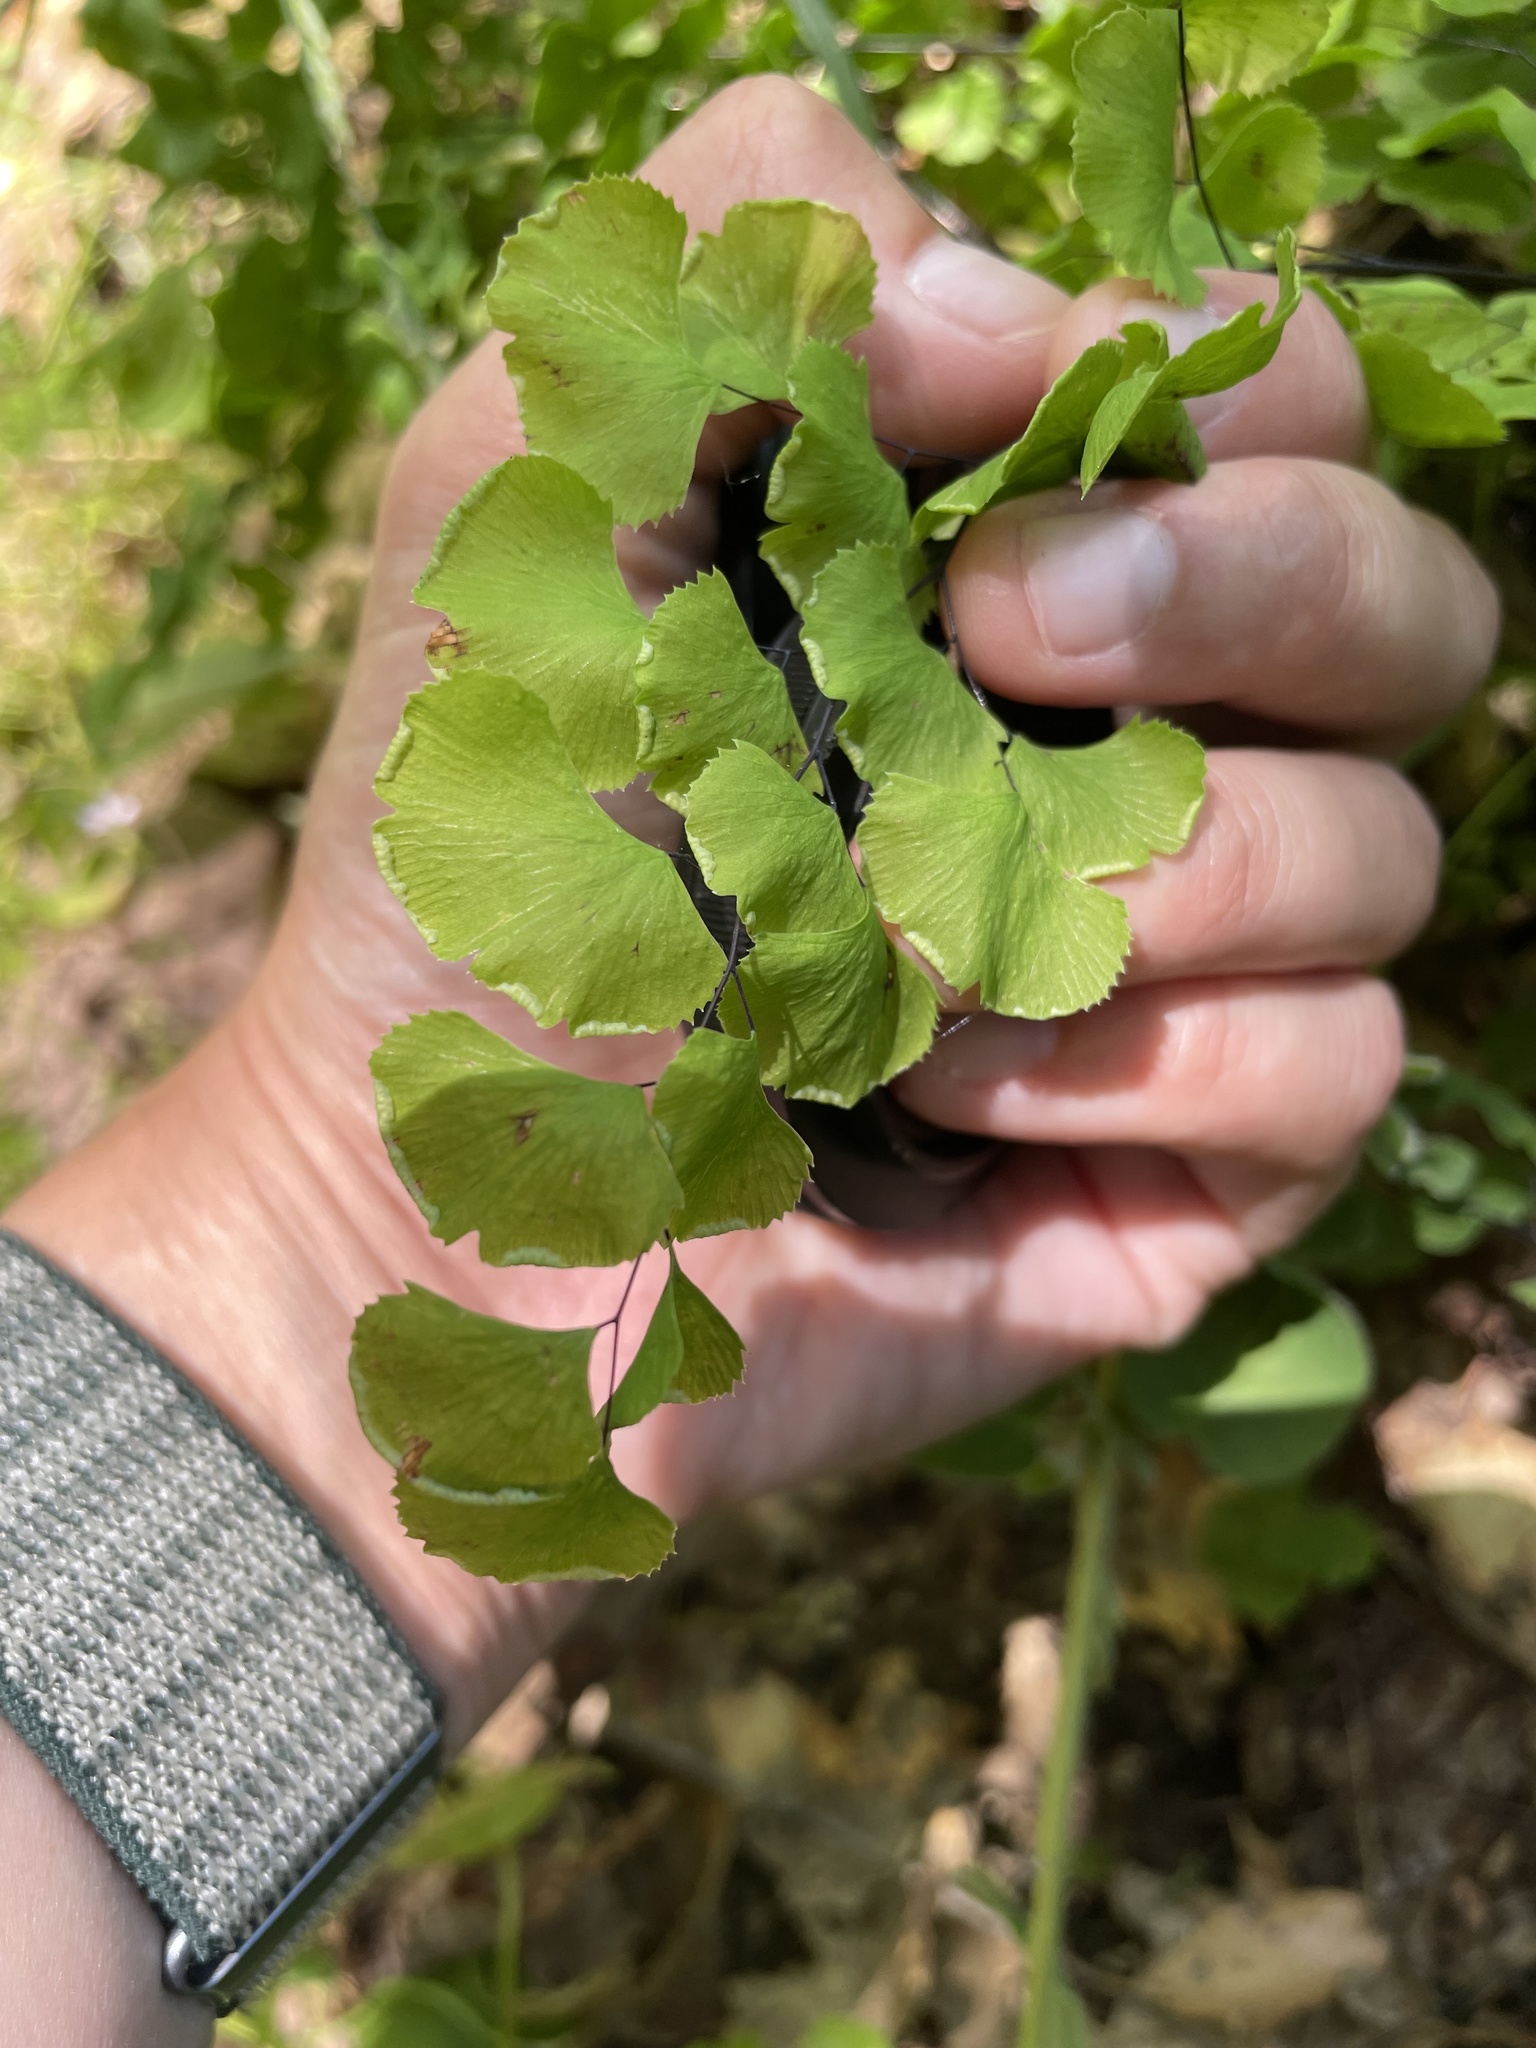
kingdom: Plantae
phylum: Tracheophyta
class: Polypodiopsida
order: Polypodiales
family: Pteridaceae
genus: Adiantum
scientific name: Adiantum jordanii
